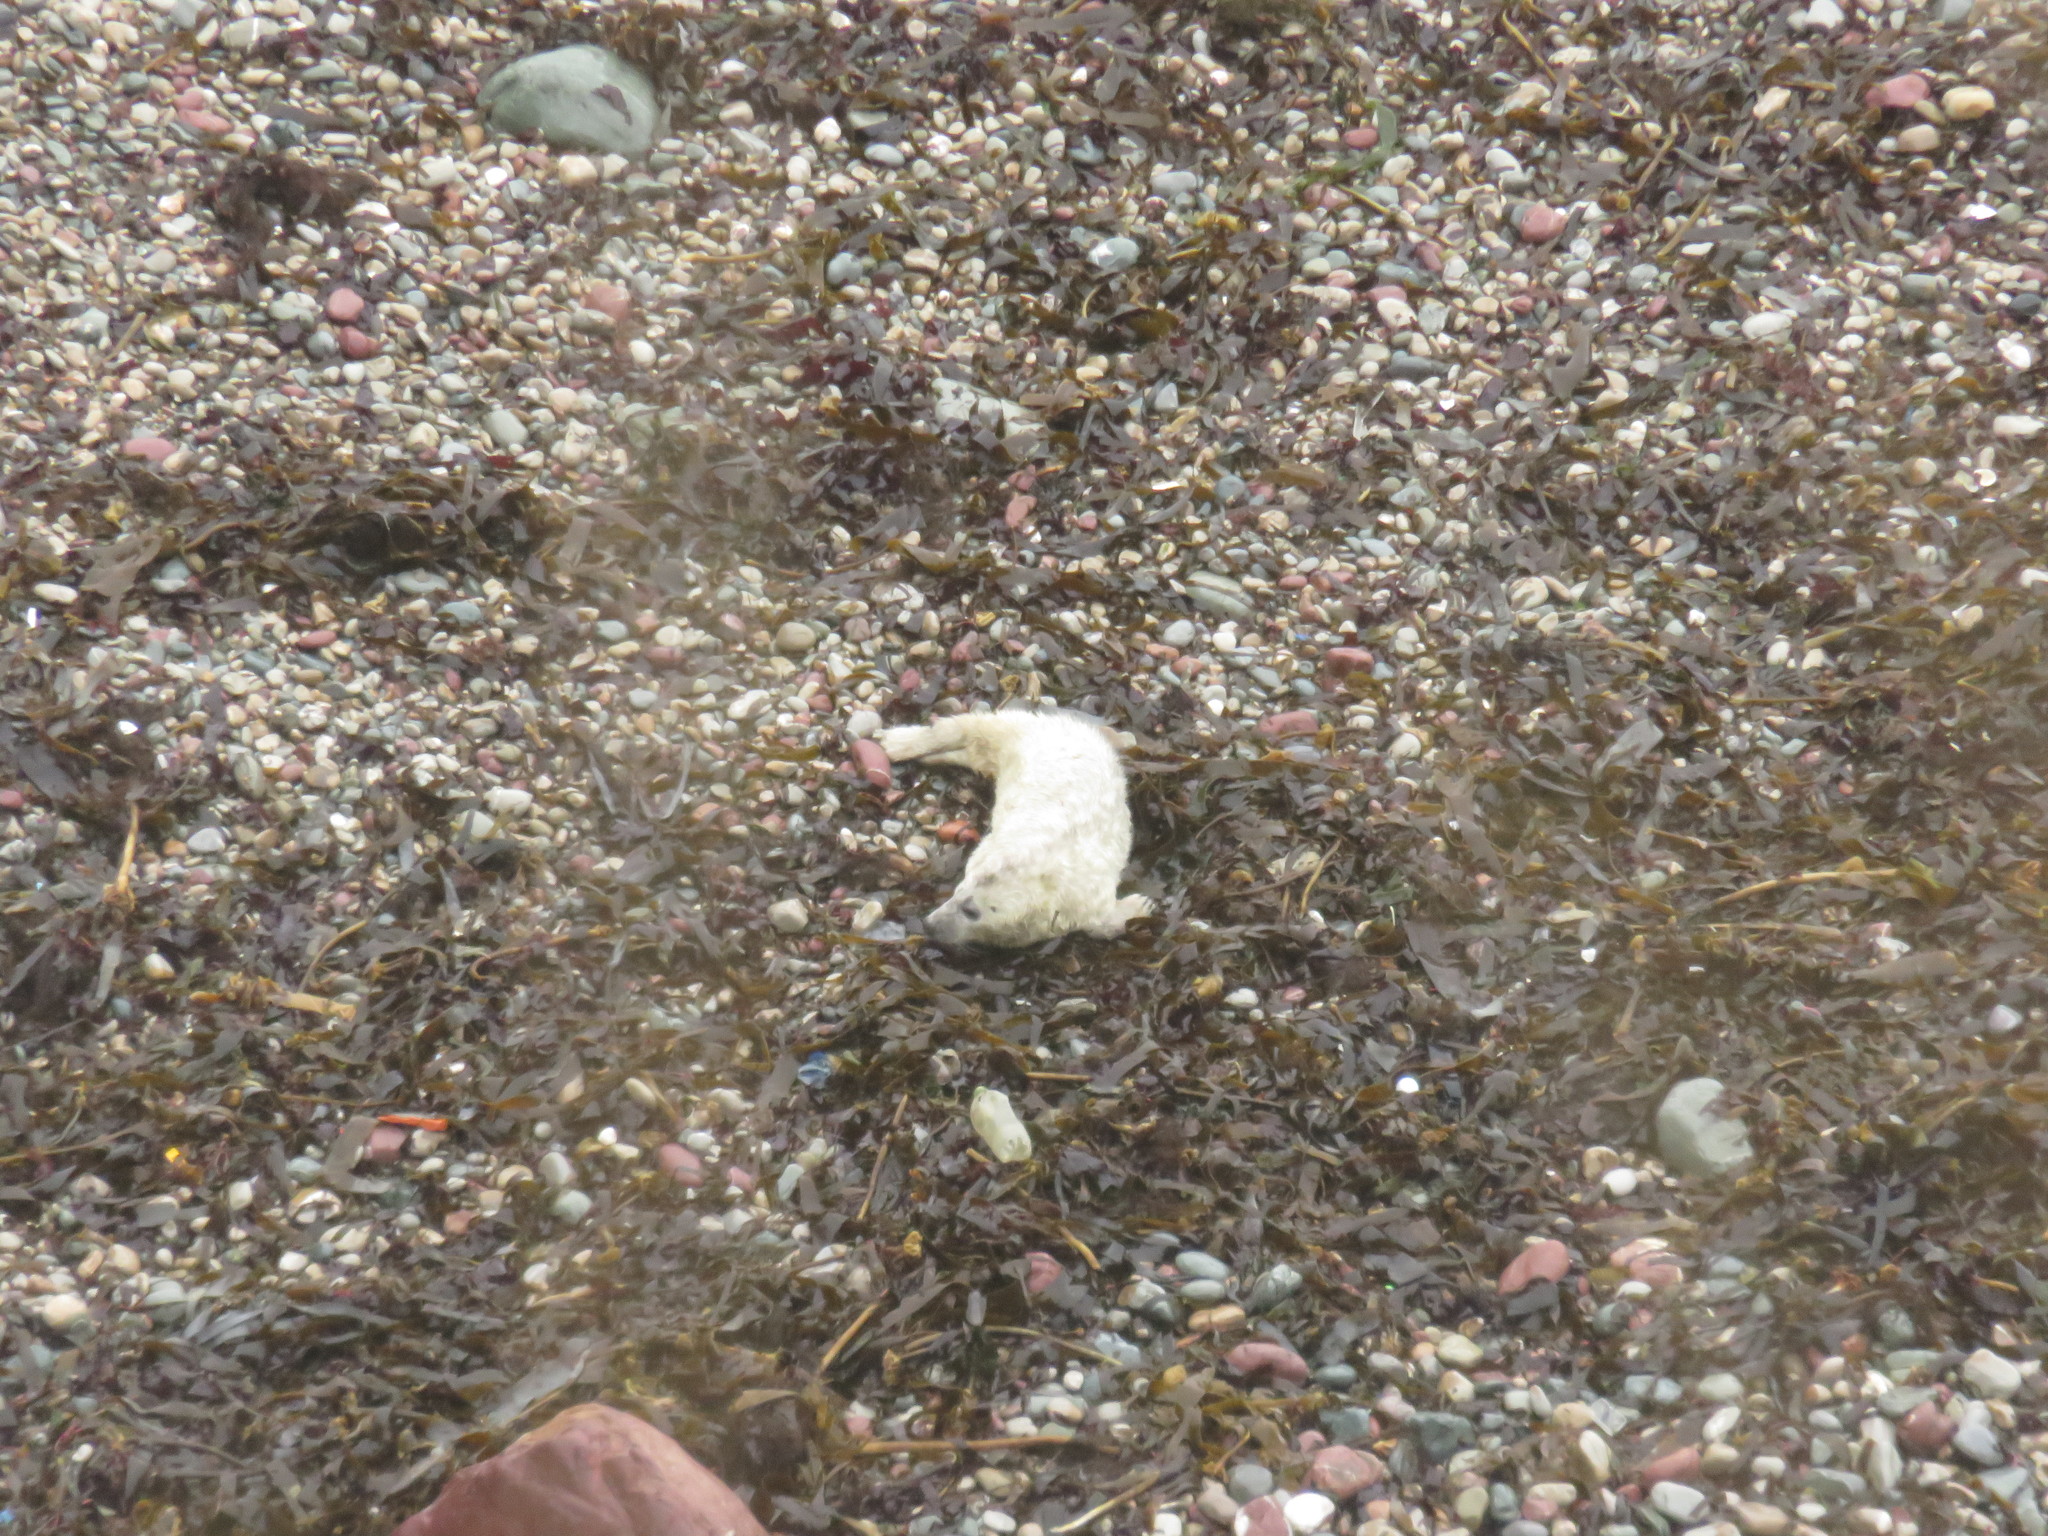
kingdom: Animalia
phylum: Chordata
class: Mammalia
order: Carnivora
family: Phocidae
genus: Halichoerus
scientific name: Halichoerus grypus
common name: Grey seal
